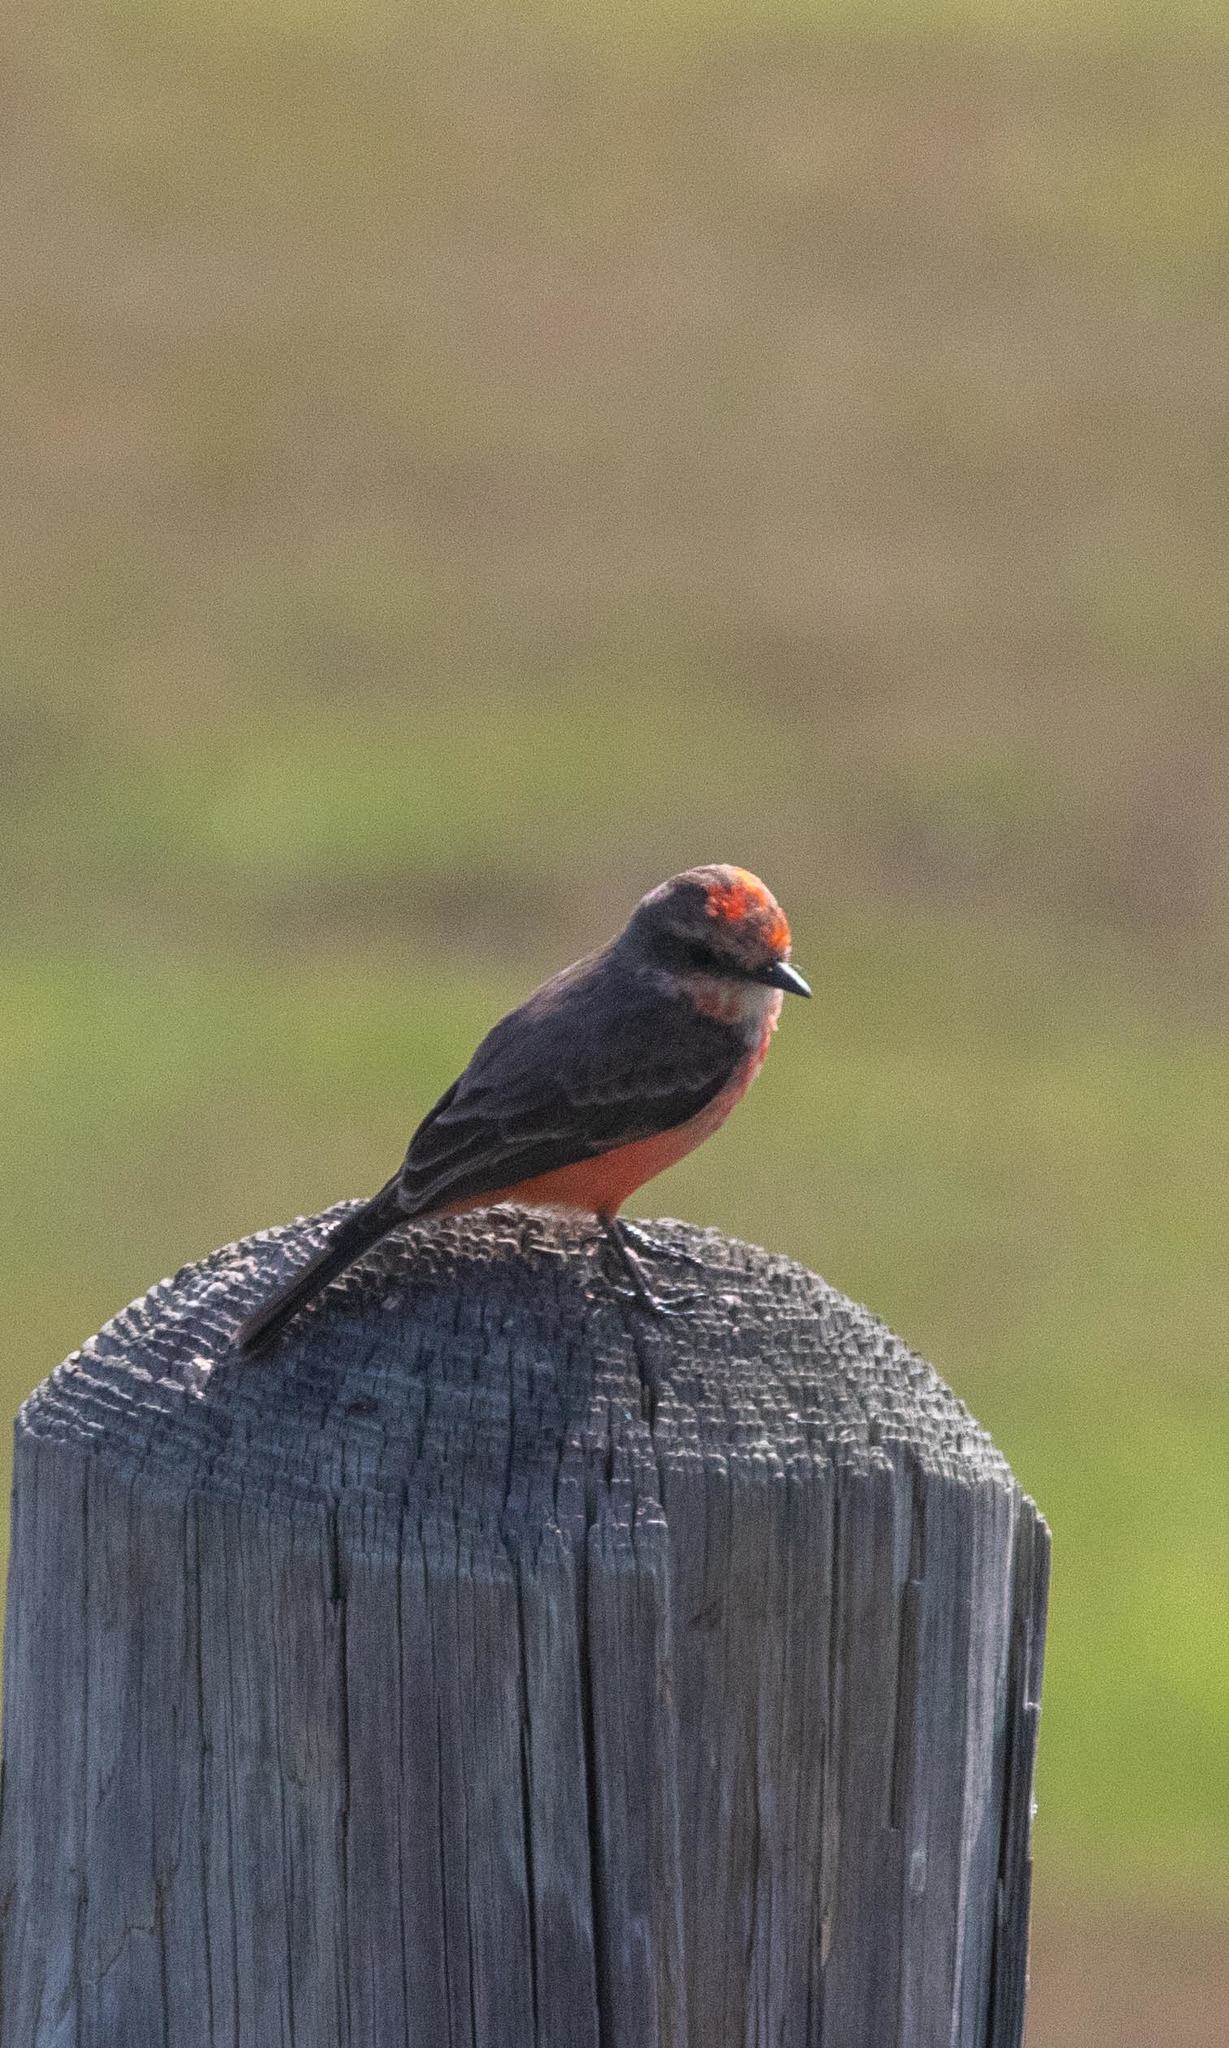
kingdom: Animalia
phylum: Chordata
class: Aves
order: Passeriformes
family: Tyrannidae
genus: Pyrocephalus
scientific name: Pyrocephalus rubinus
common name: Vermilion flycatcher
